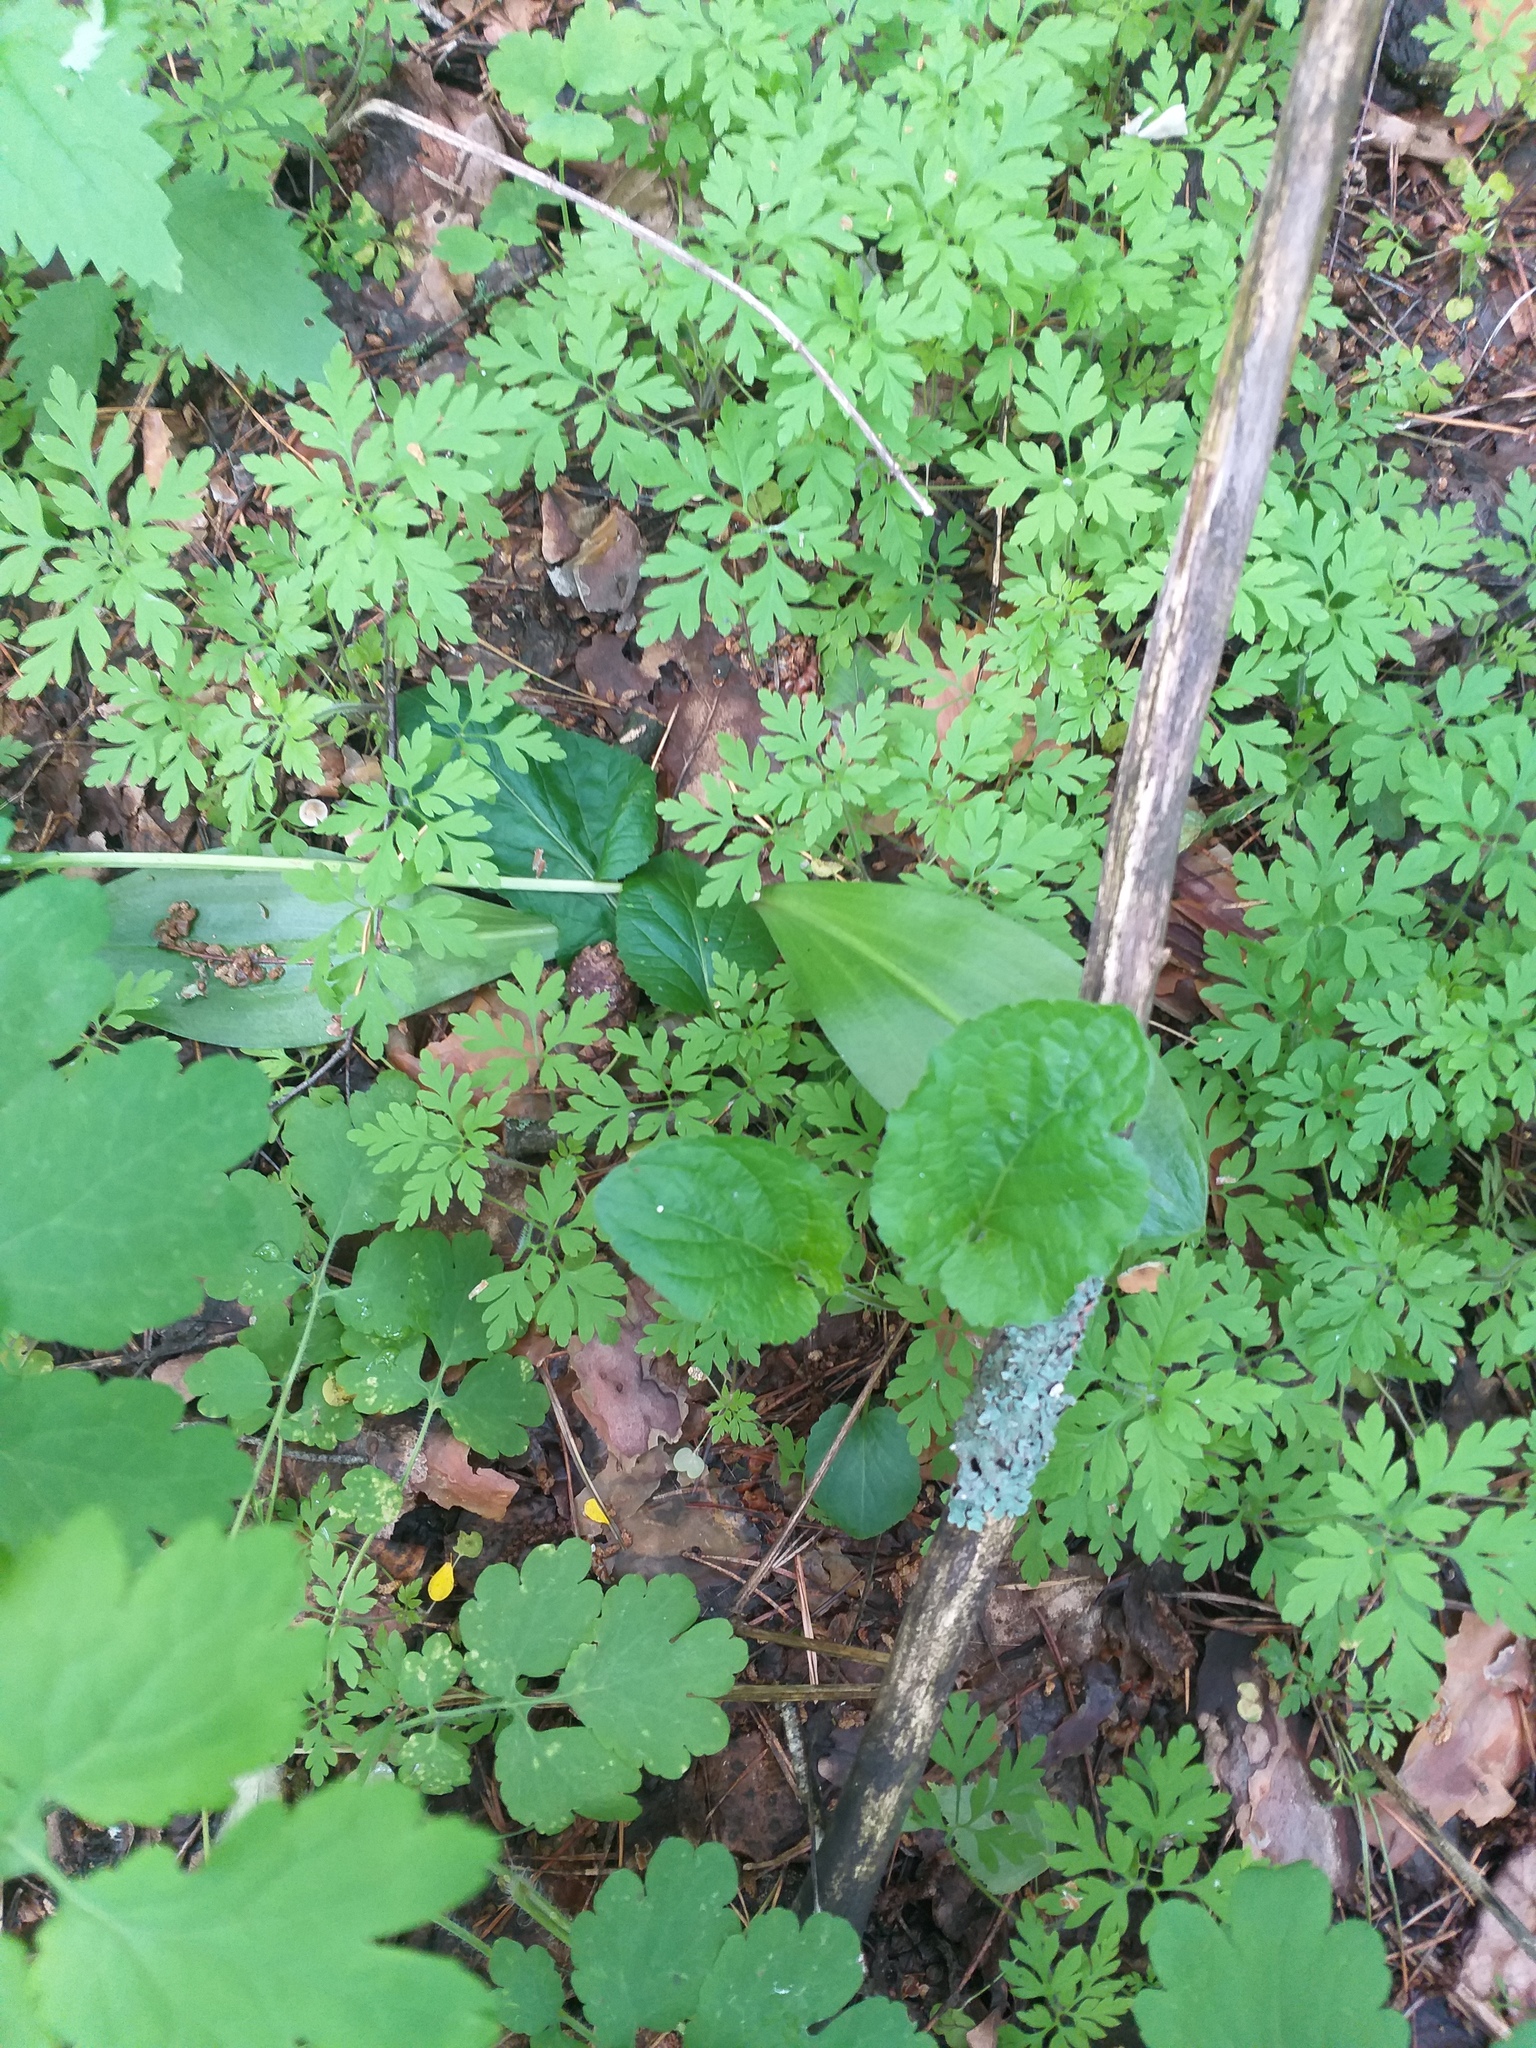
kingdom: Plantae
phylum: Tracheophyta
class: Liliopsida
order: Asparagales
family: Orchidaceae
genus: Platanthera
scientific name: Platanthera bifolia
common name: Lesser butterfly-orchid
